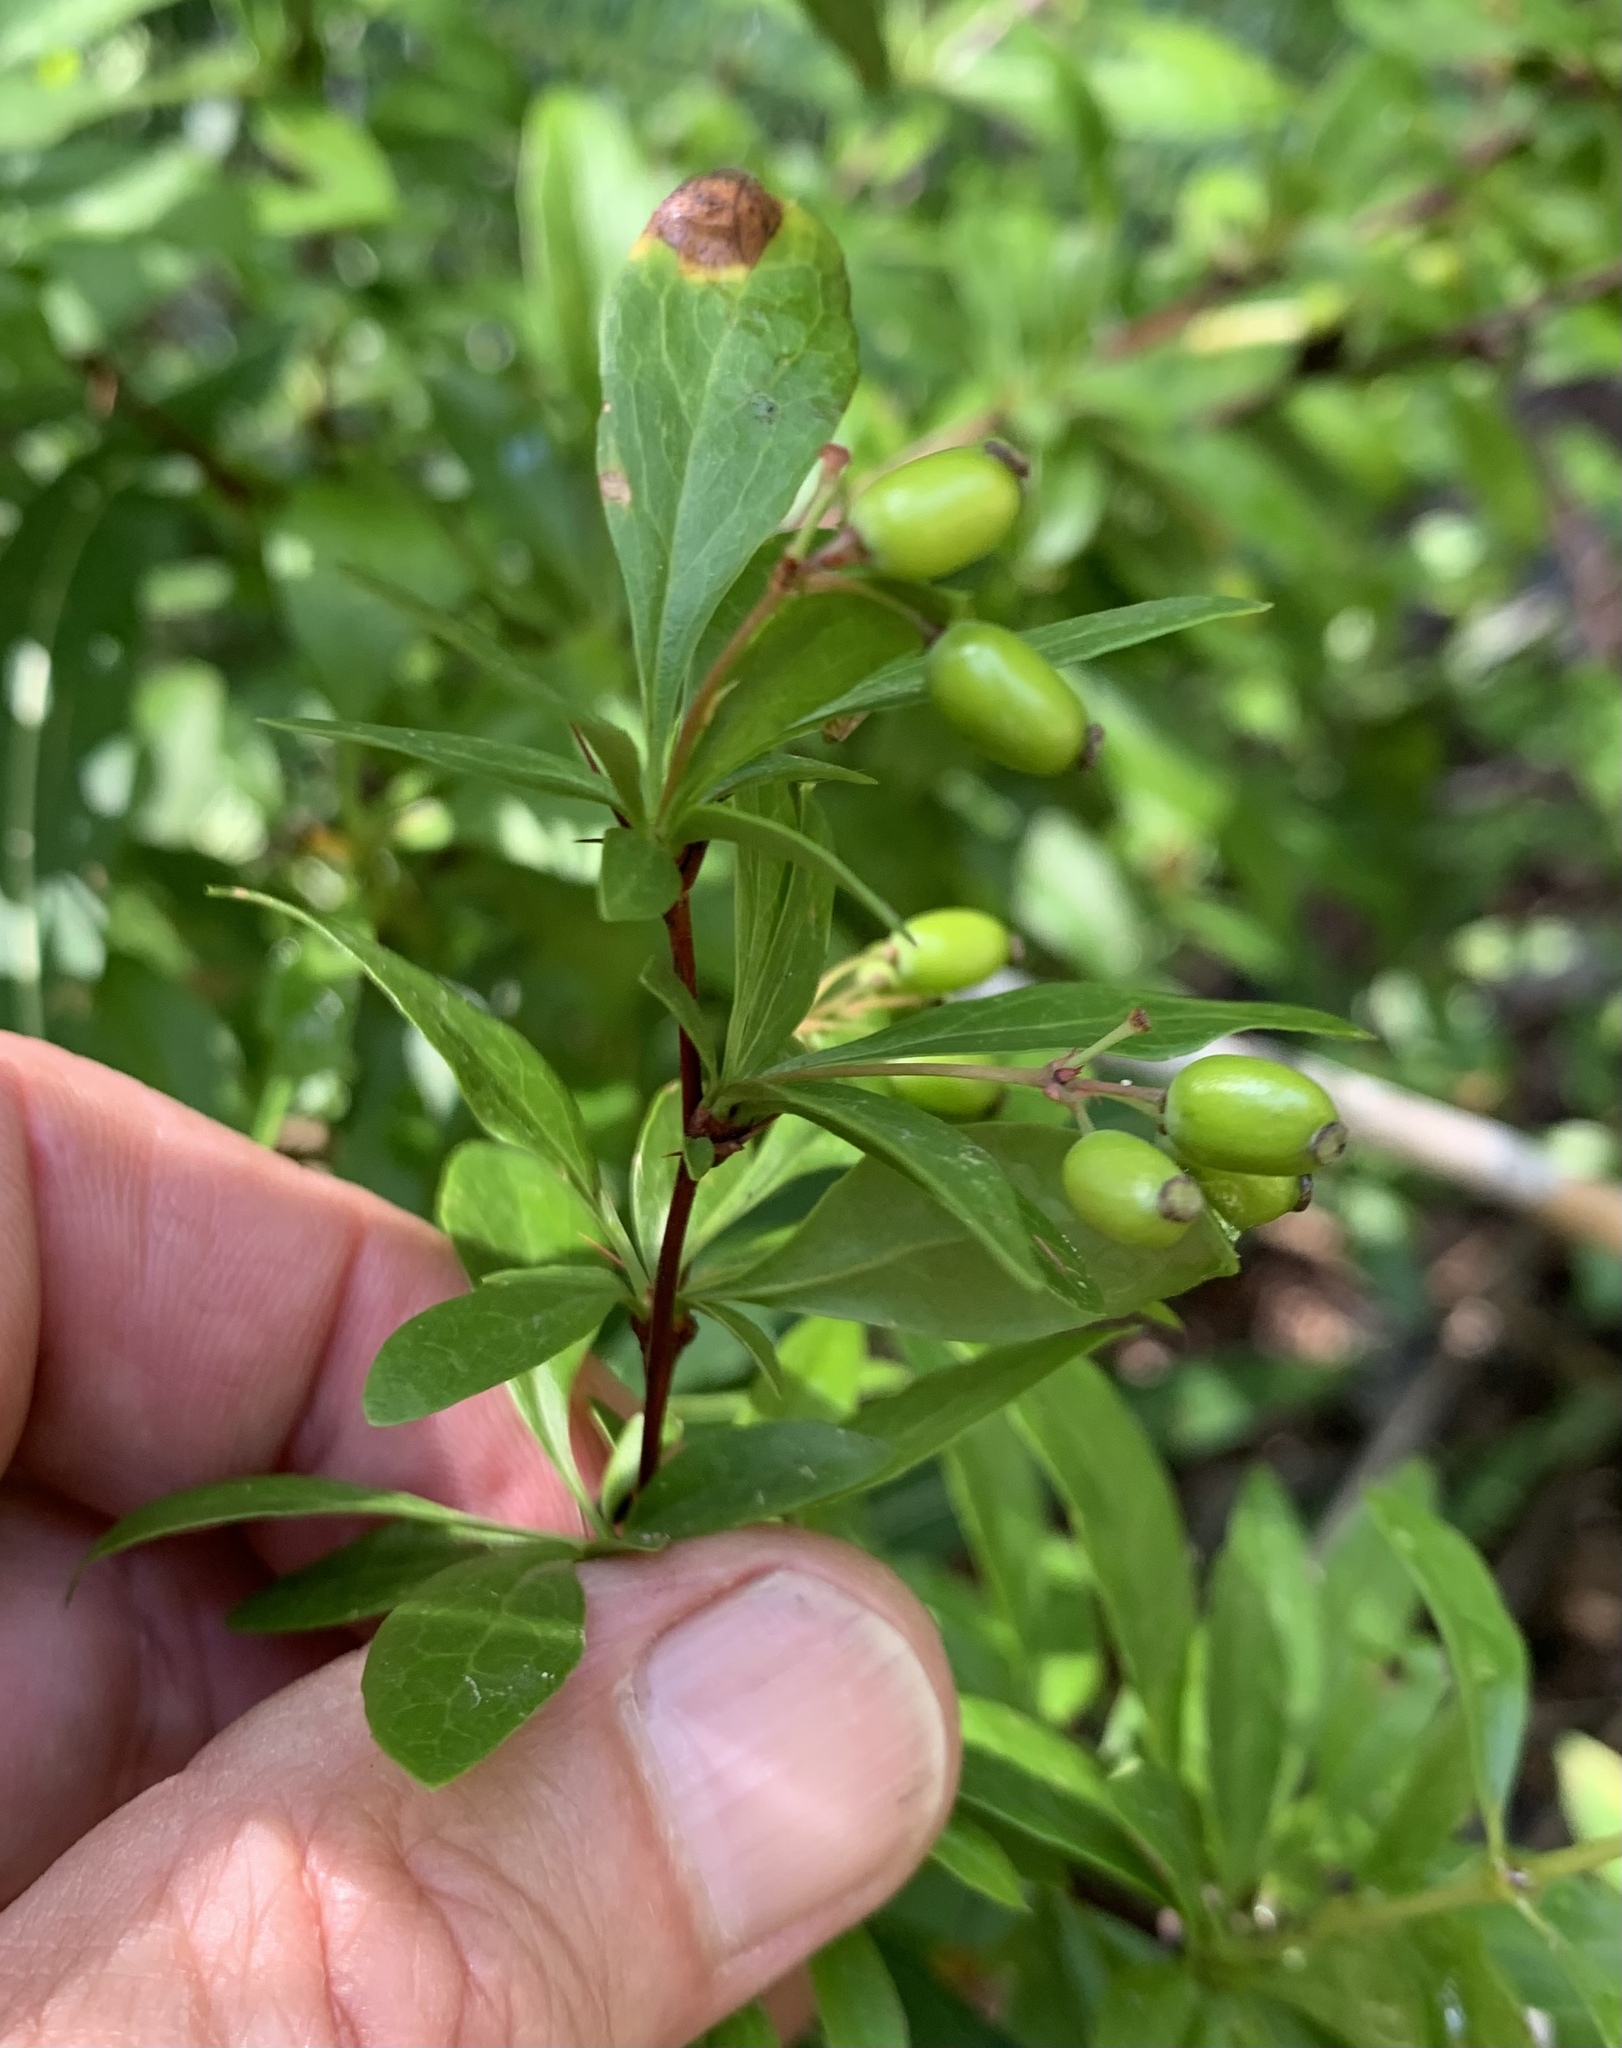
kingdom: Plantae
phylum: Tracheophyta
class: Magnoliopsida
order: Ranunculales
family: Berberidaceae
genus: Berberis
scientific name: Berberis fendleri
